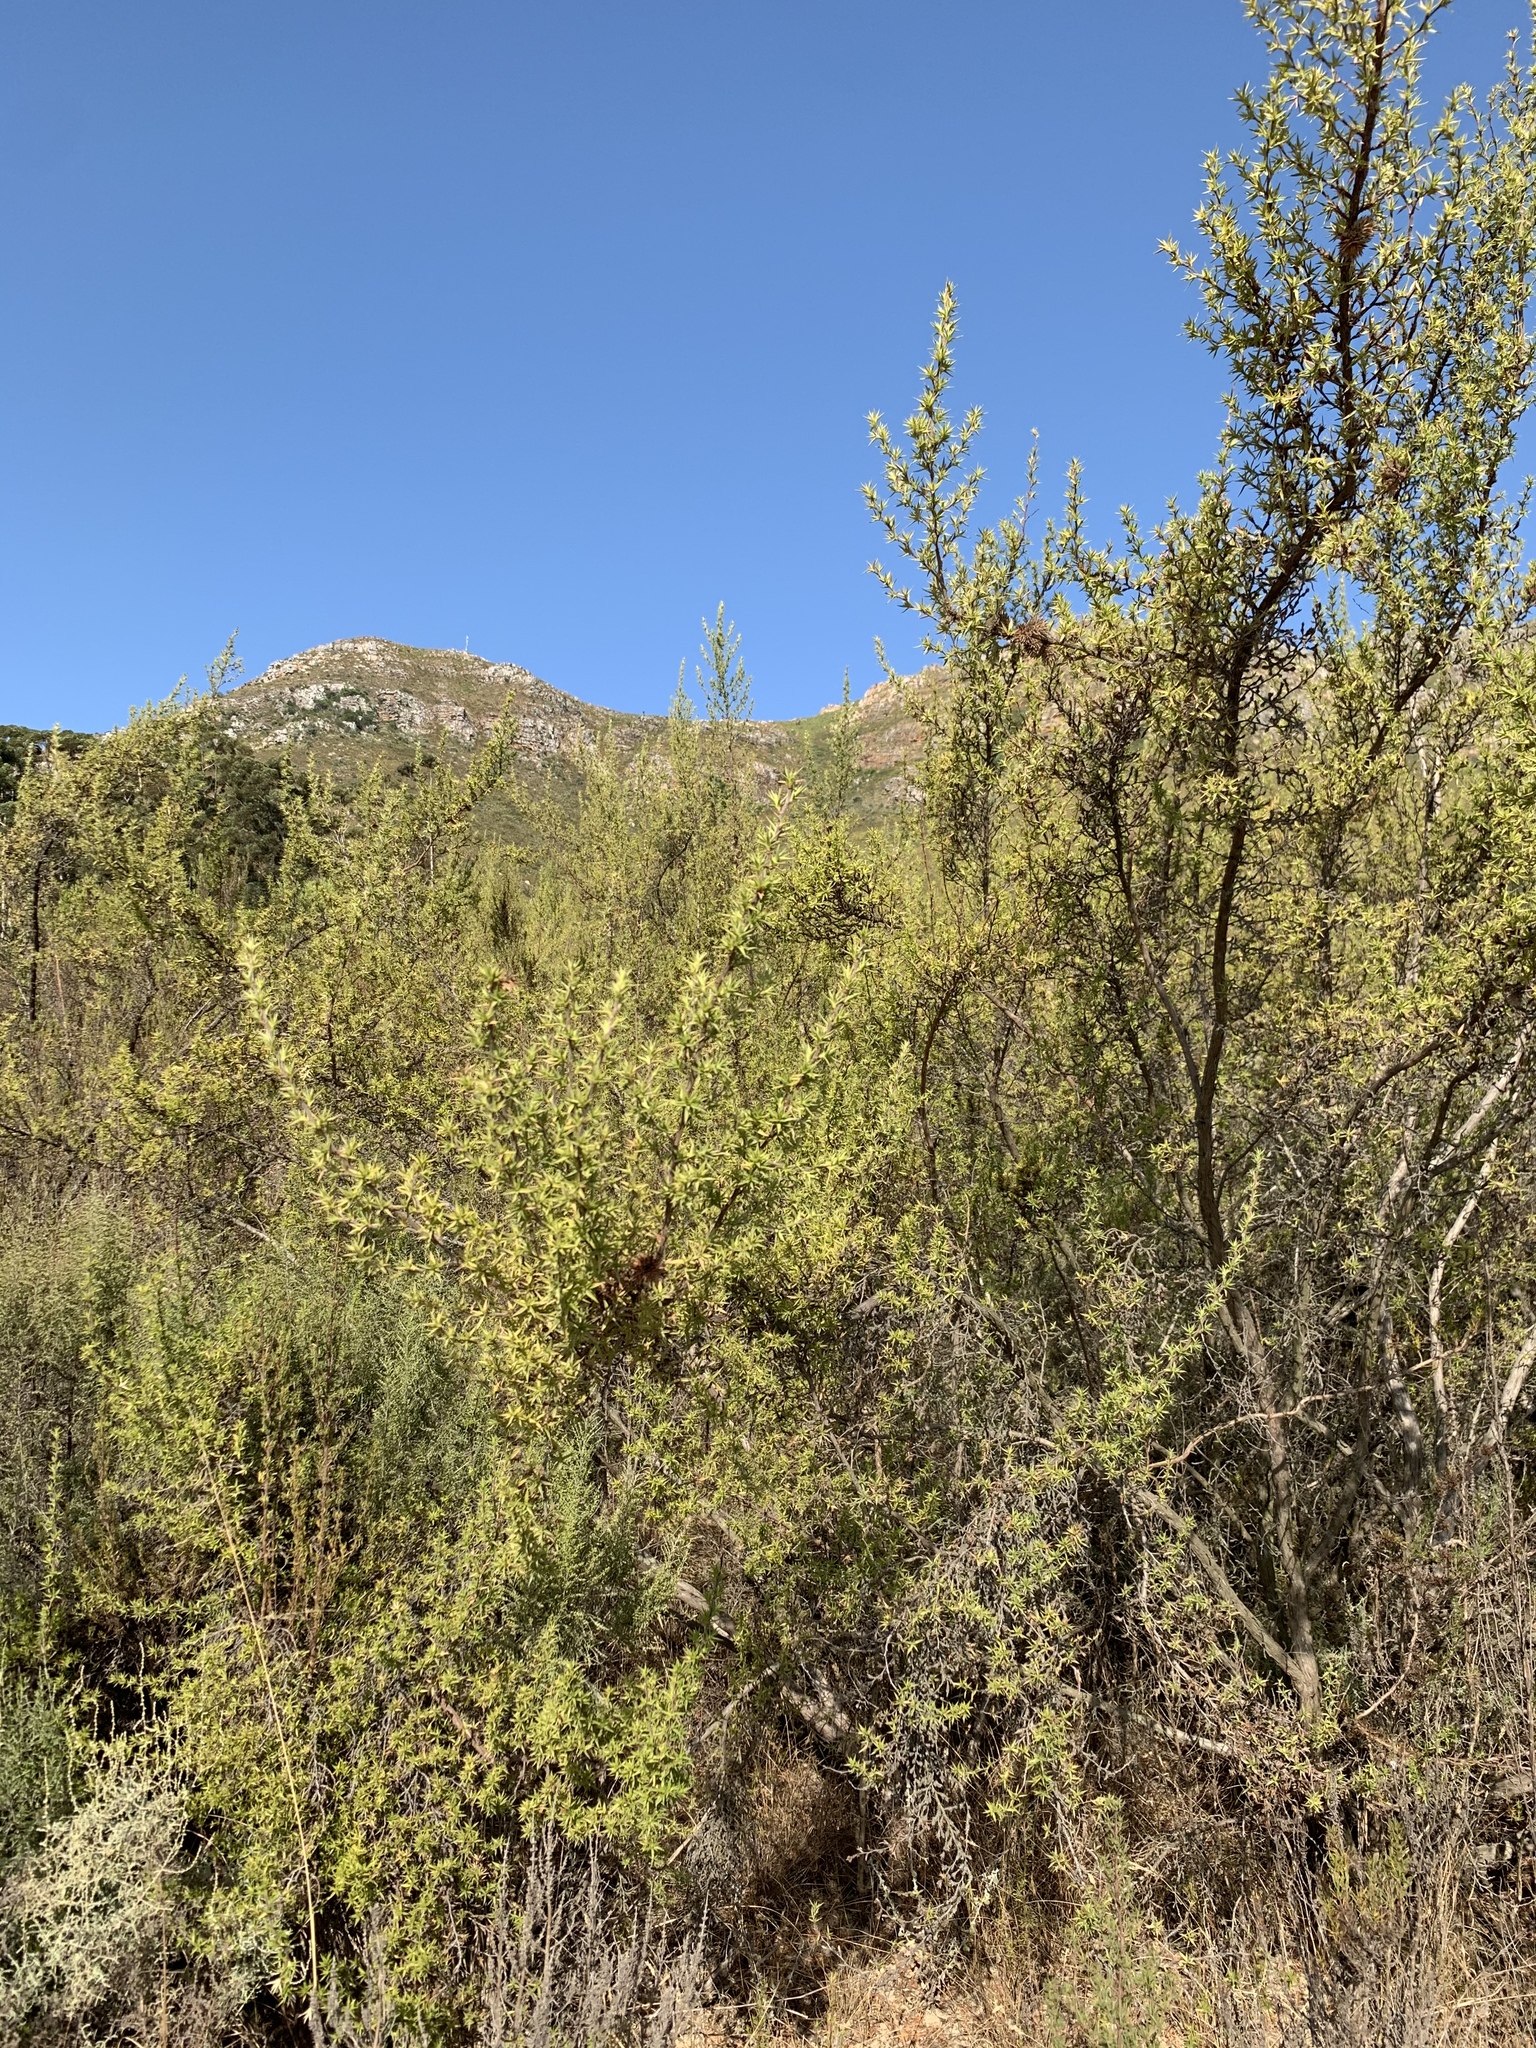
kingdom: Plantae
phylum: Tracheophyta
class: Magnoliopsida
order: Rosales
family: Rosaceae
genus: Cliffortia
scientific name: Cliffortia ruscifolia
